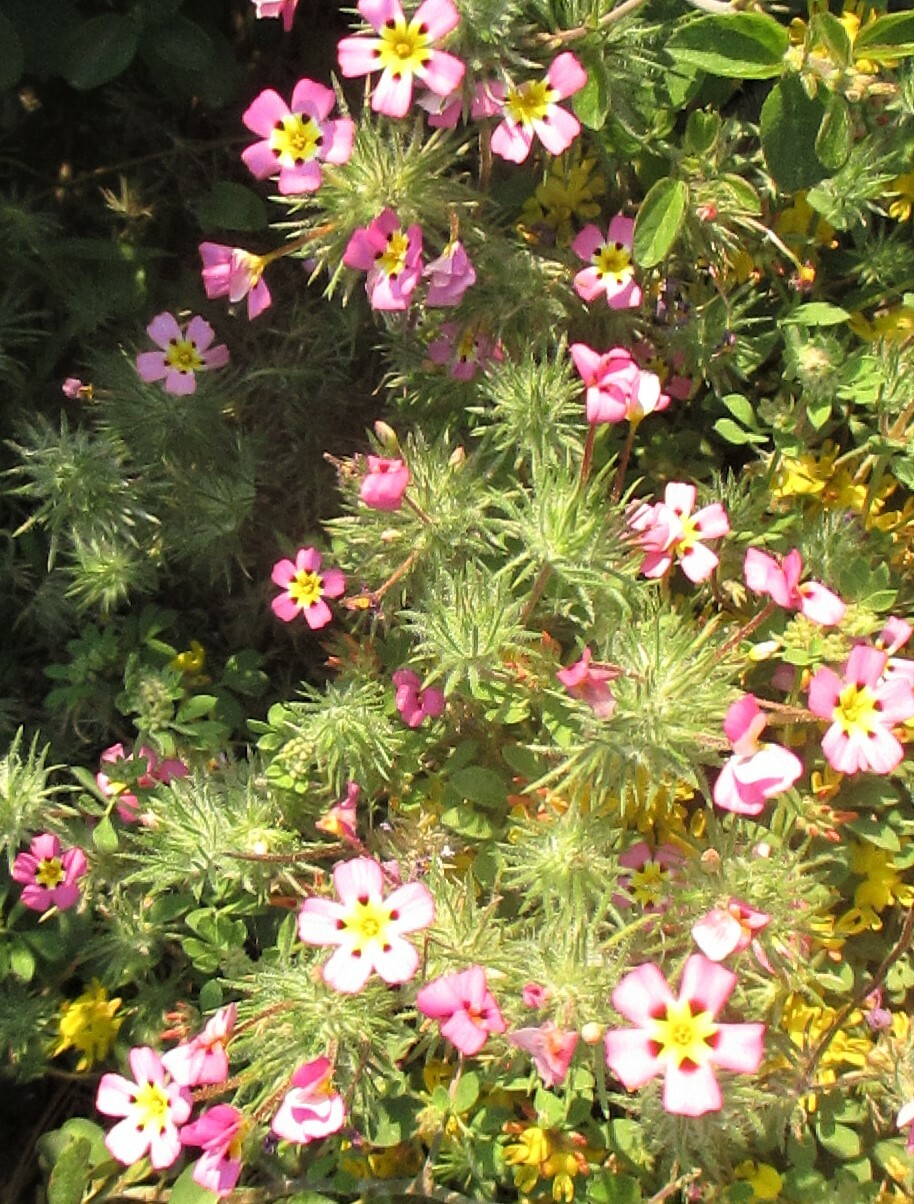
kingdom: Plantae
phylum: Tracheophyta
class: Magnoliopsida
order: Ericales
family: Polemoniaceae
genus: Leptosiphon
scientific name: Leptosiphon ciliatus
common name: Whiskerbrush
